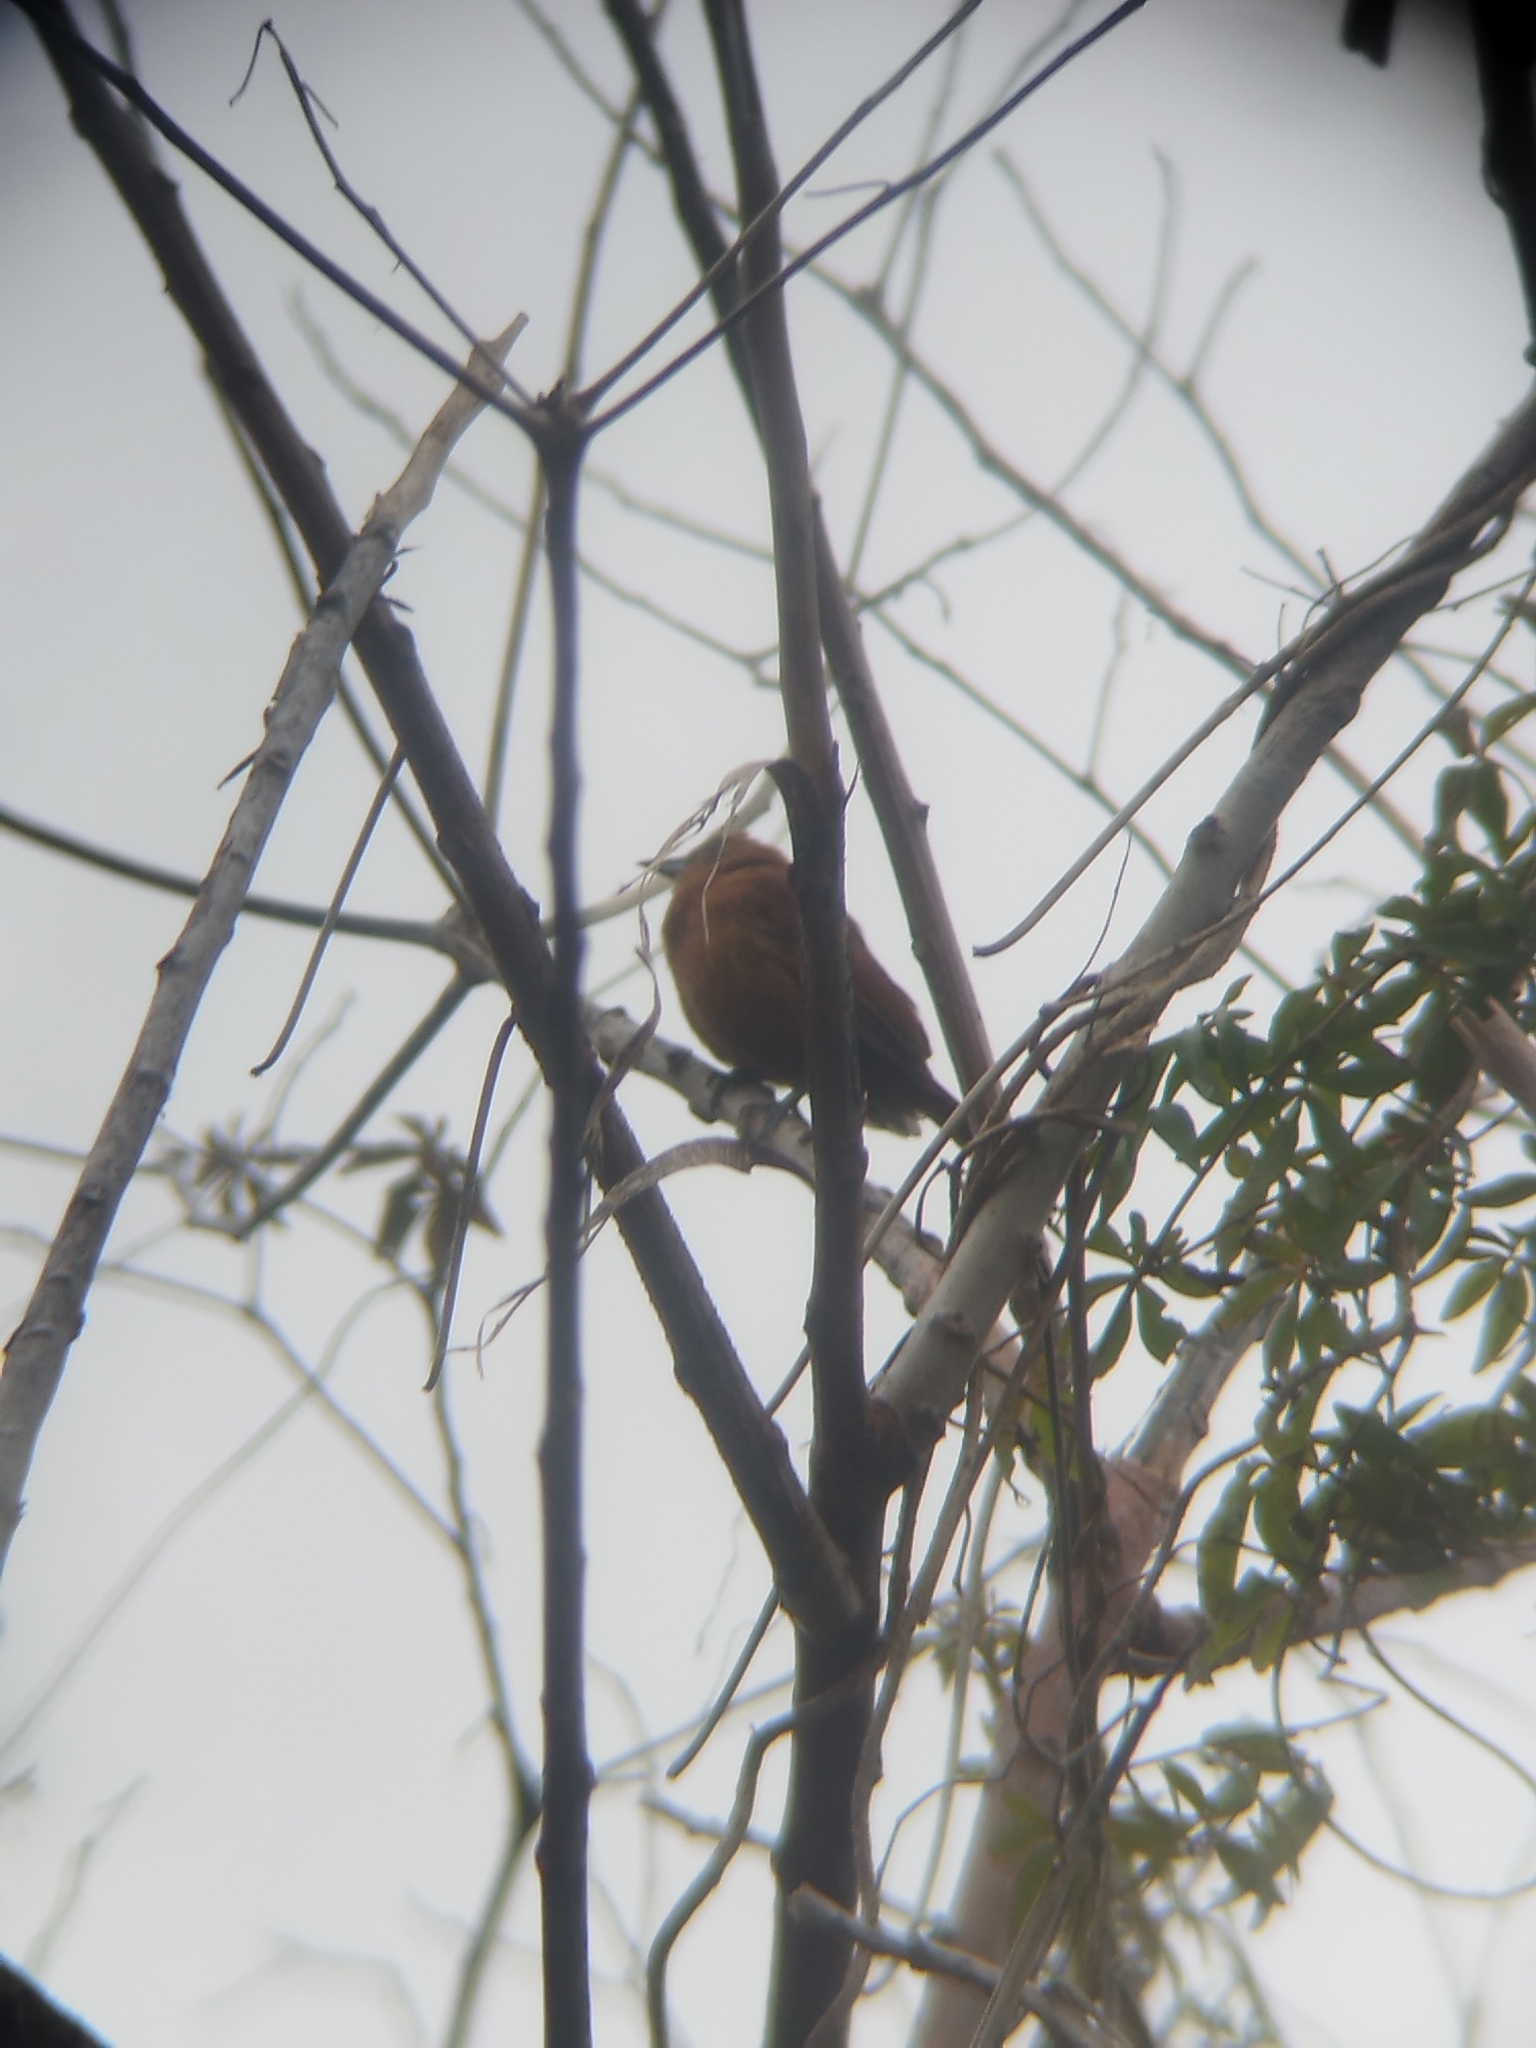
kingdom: Animalia
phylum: Chordata
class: Aves
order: Passeriformes
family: Thraupidae
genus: Tachyphonus
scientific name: Tachyphonus rufus
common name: White-lined tanager
